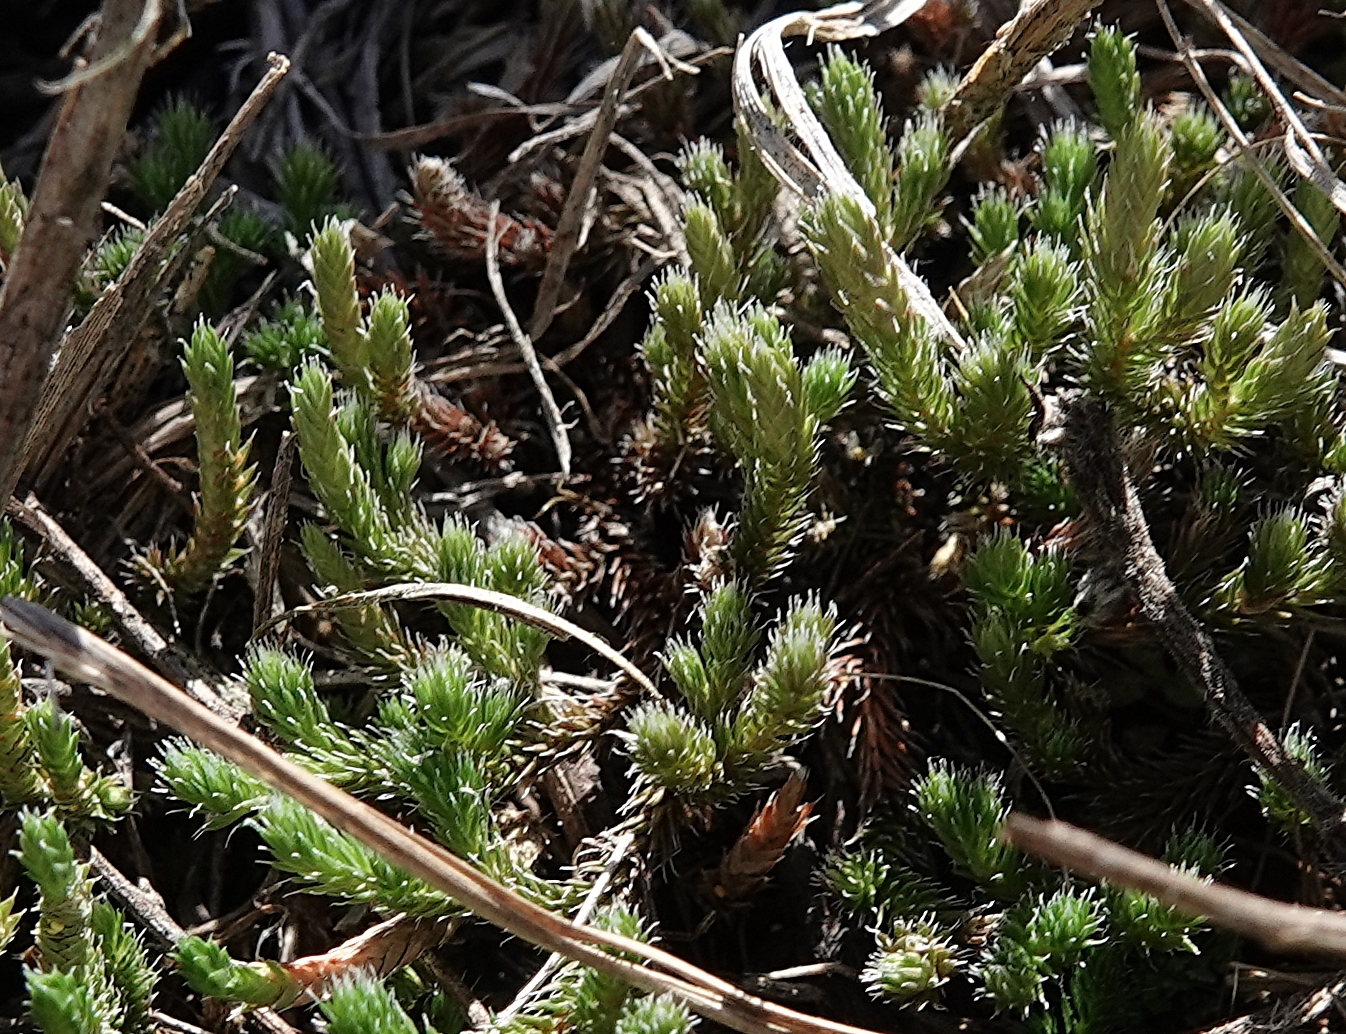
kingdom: Plantae
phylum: Tracheophyta
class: Lycopodiopsida
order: Selaginellales
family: Selaginellaceae
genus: Selaginella
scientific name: Selaginella rupestris
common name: Dwarf spikemoss
